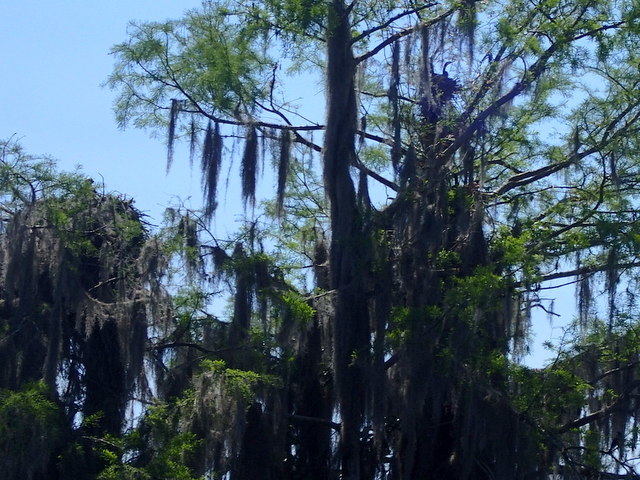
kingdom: Animalia
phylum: Chordata
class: Aves
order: Suliformes
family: Anhingidae
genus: Anhinga
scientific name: Anhinga anhinga
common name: Anhinga
